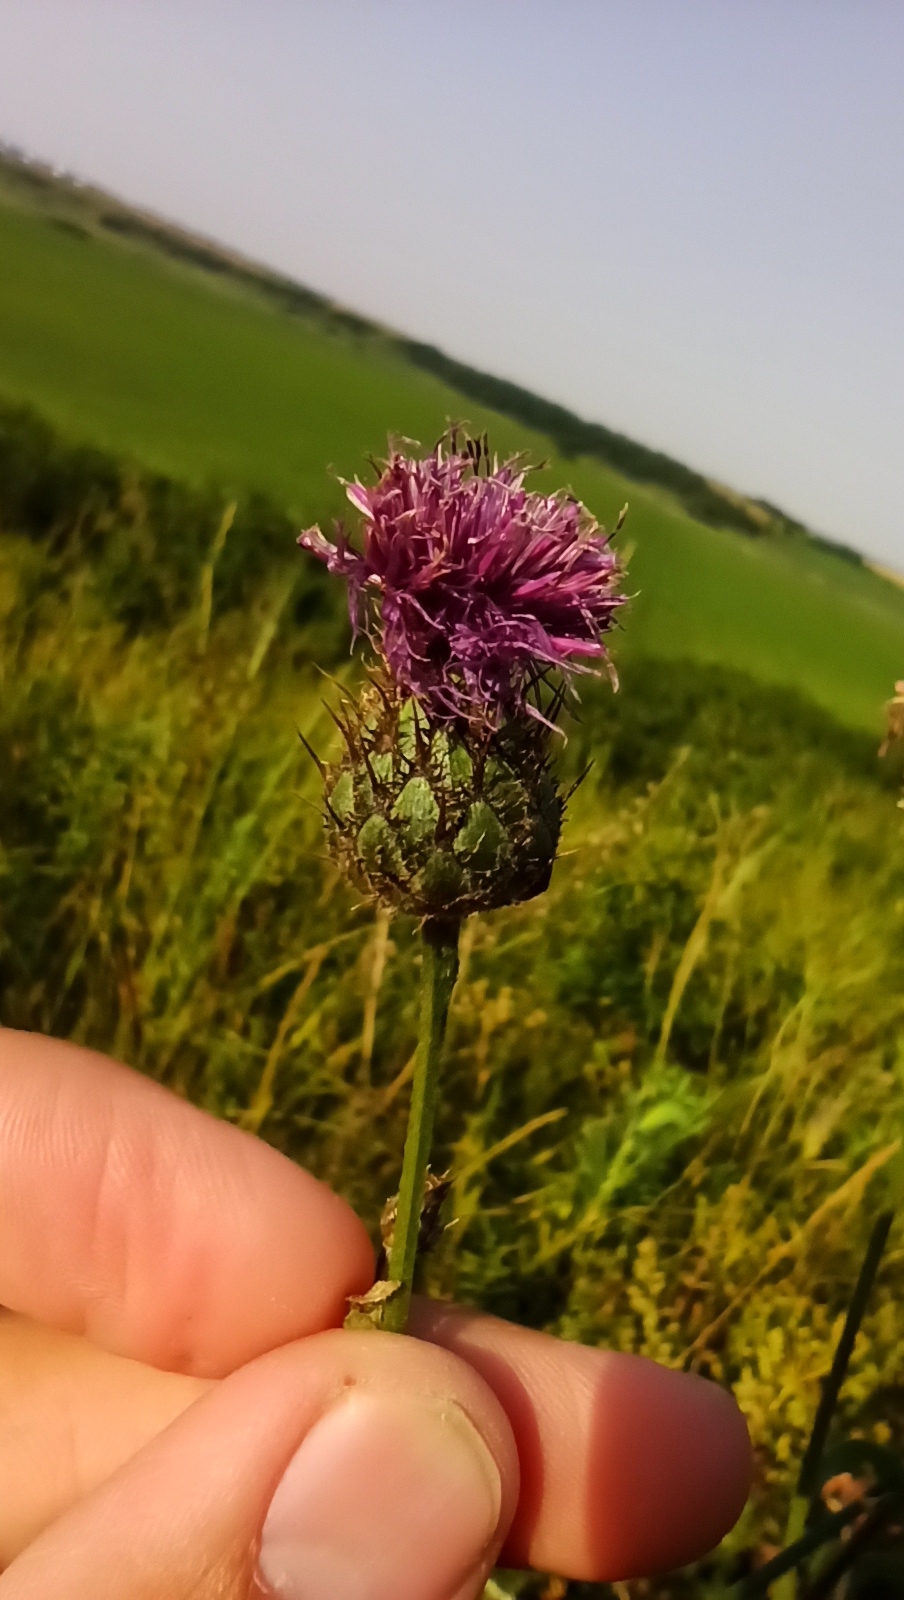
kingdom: Plantae
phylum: Tracheophyta
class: Magnoliopsida
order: Asterales
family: Asteraceae
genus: Centaurea
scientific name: Centaurea scabiosa
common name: Greater knapweed
